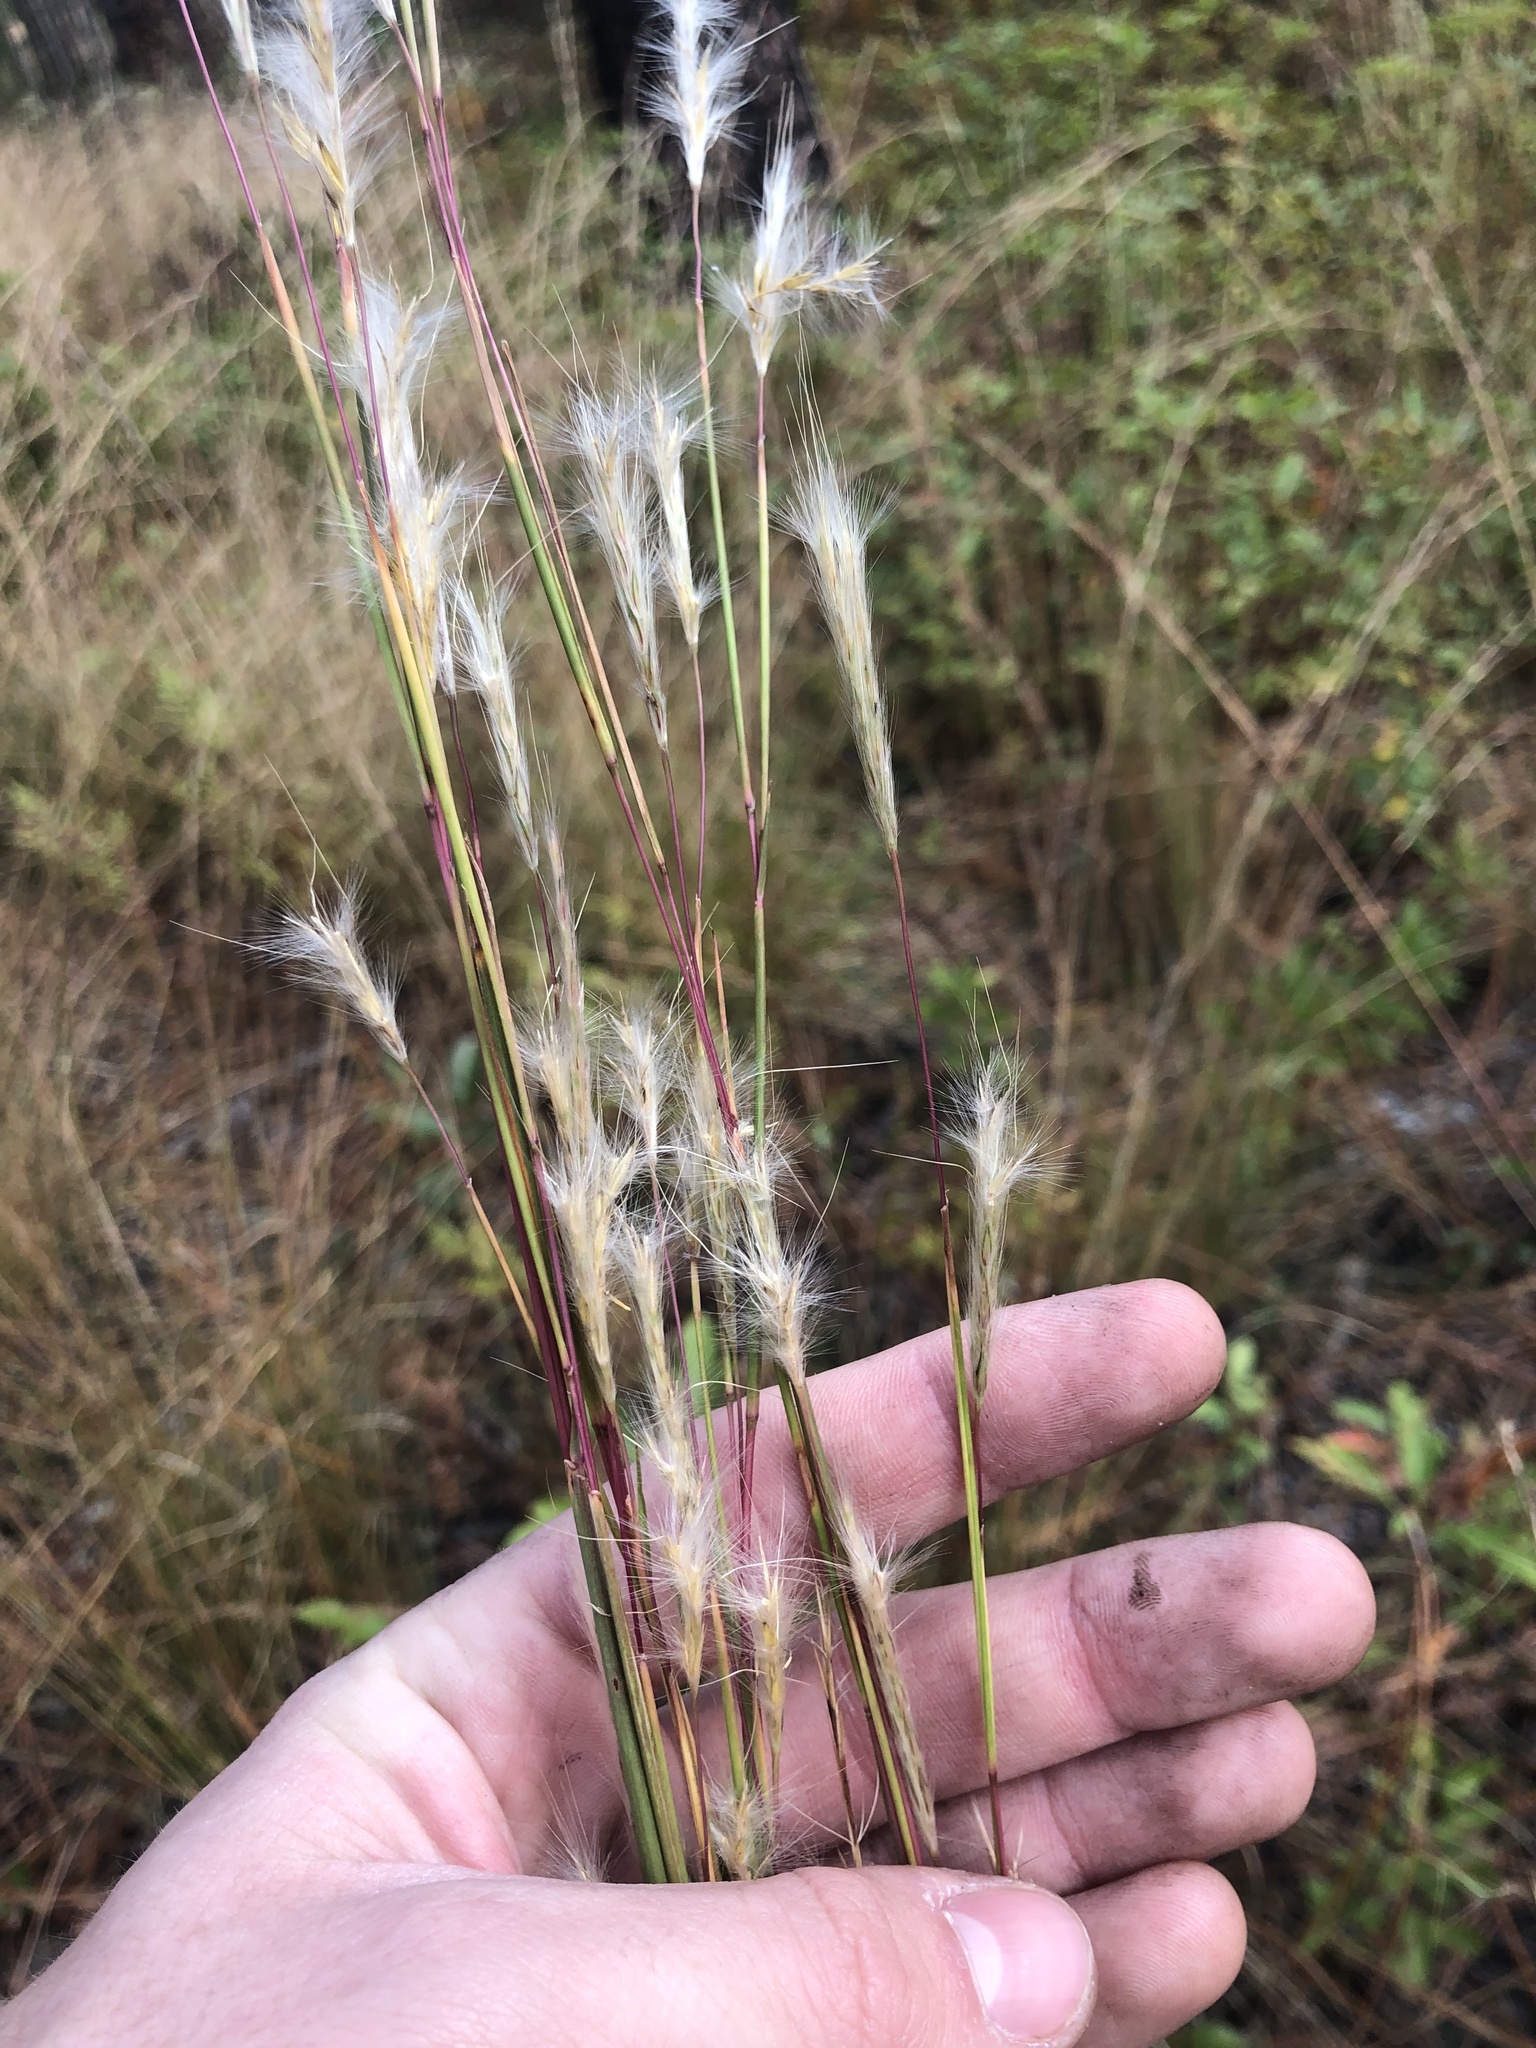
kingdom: Plantae
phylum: Tracheophyta
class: Liliopsida
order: Poales
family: Poaceae
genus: Andropogon
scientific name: Andropogon ternarius
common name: Split bluestem
